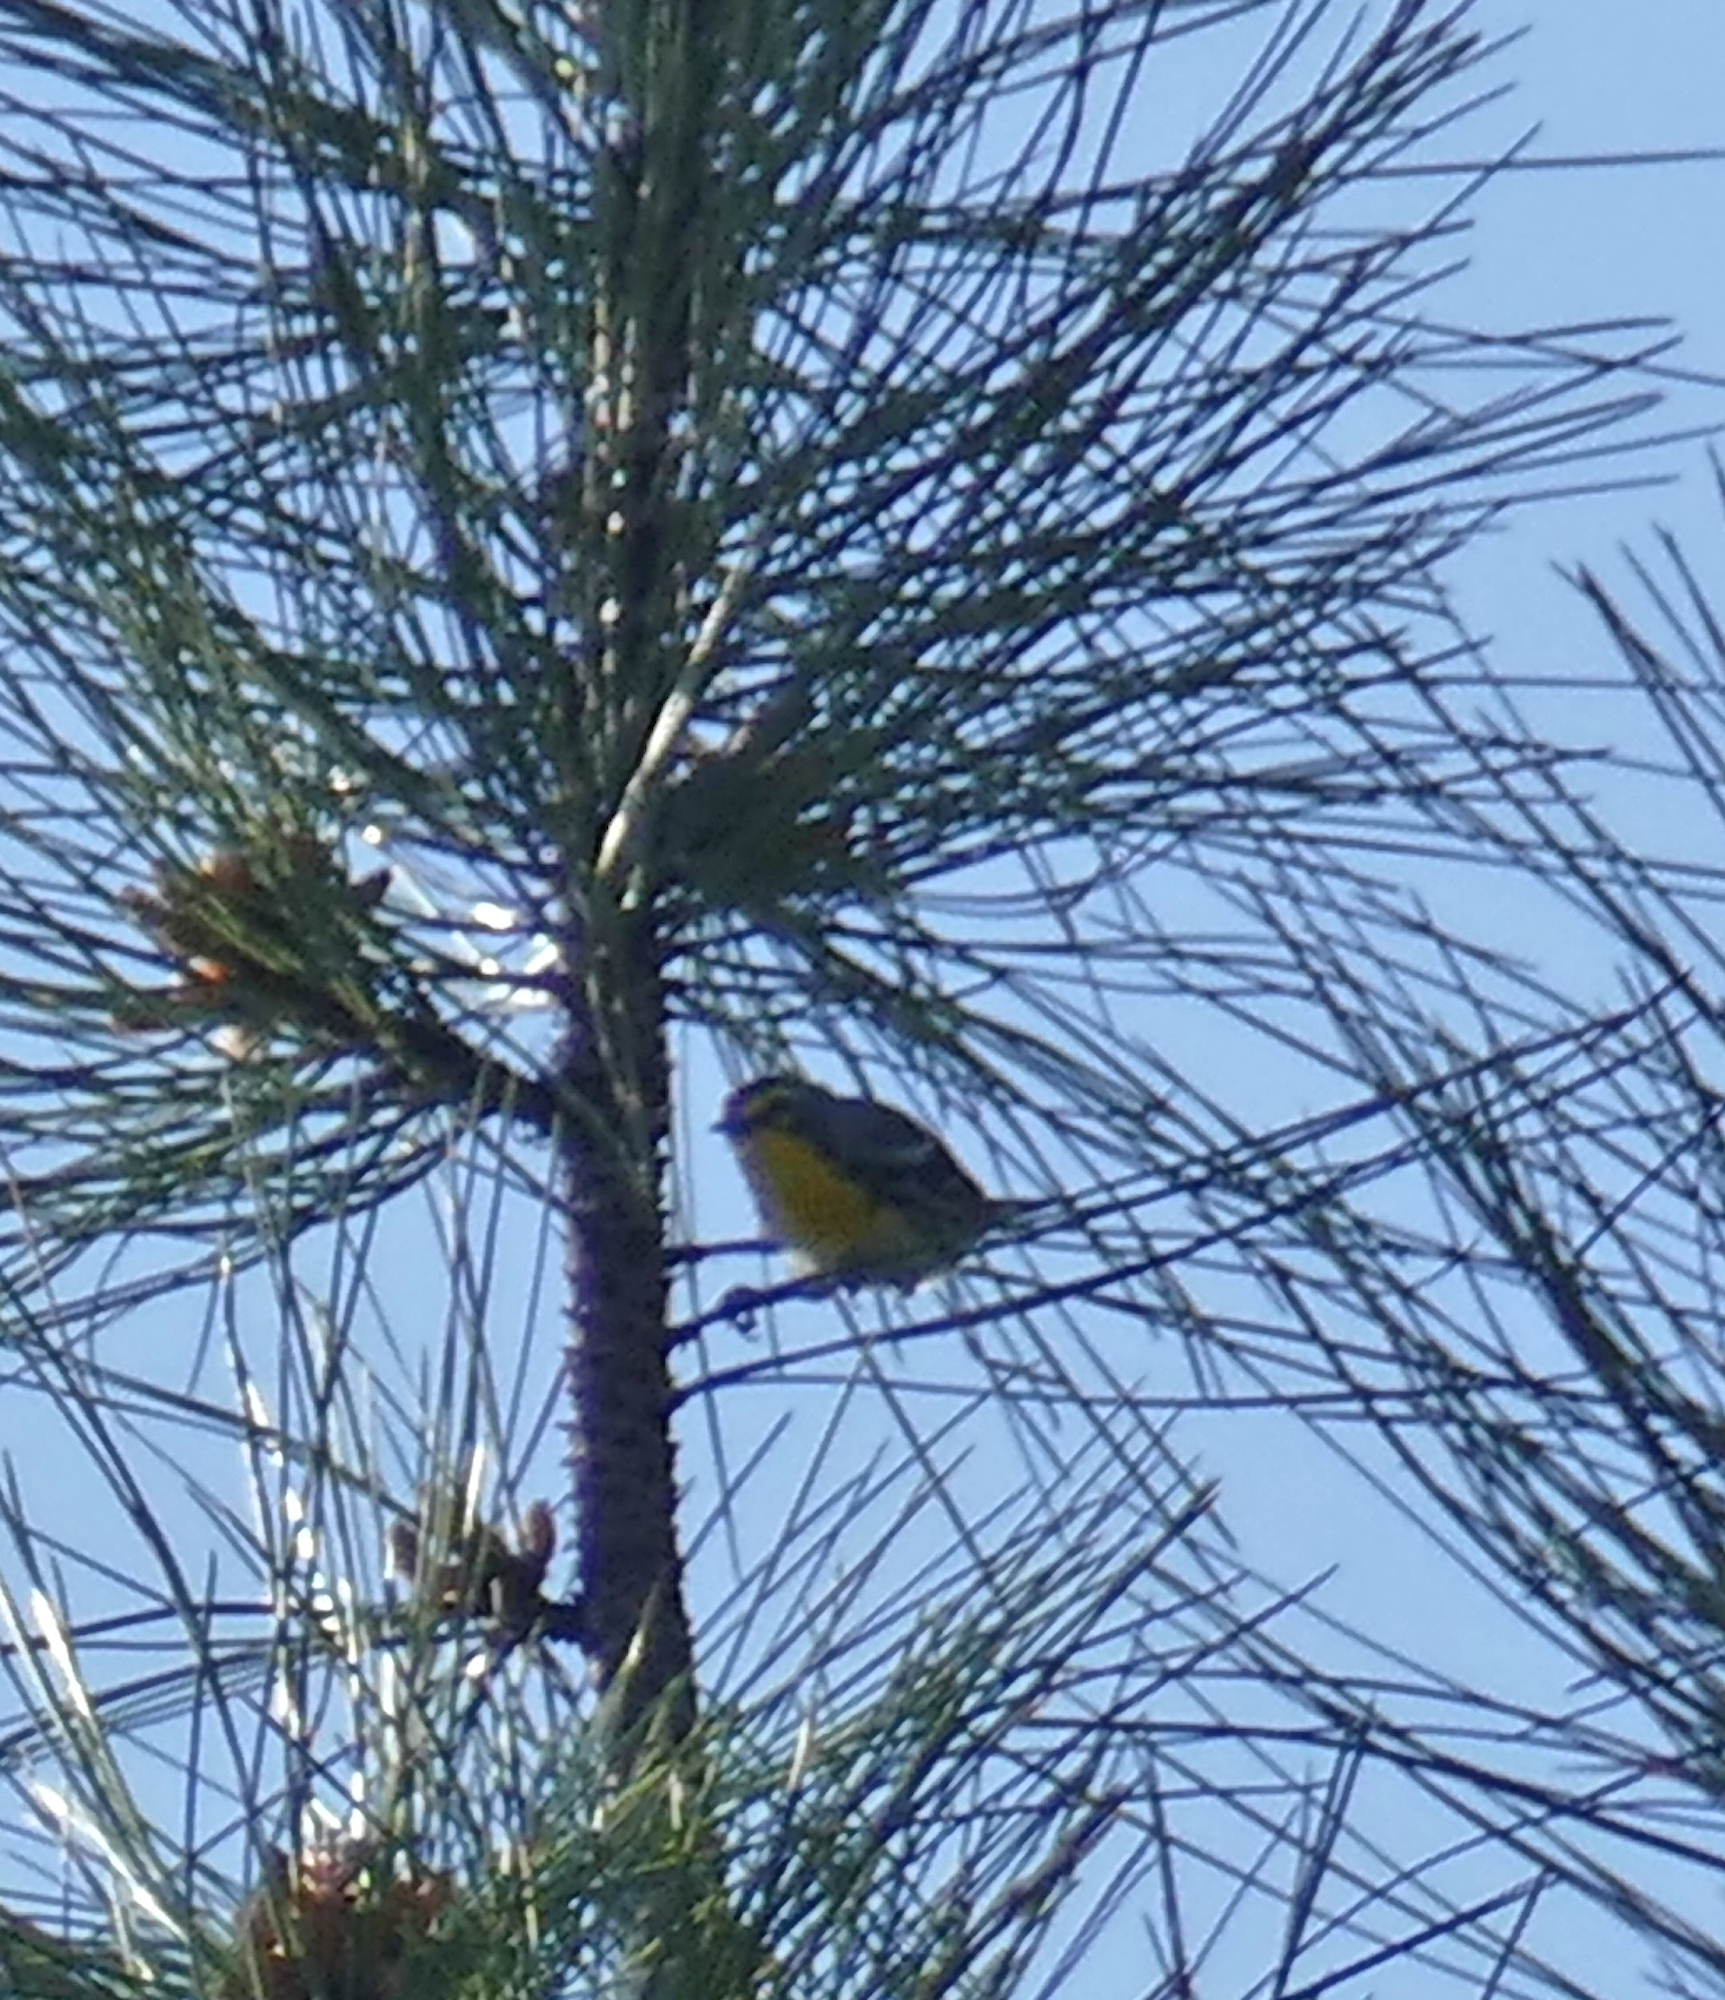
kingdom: Animalia
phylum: Chordata
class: Aves
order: Passeriformes
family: Parulidae
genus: Setophaga
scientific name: Setophaga graciae
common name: Grace's warbler
